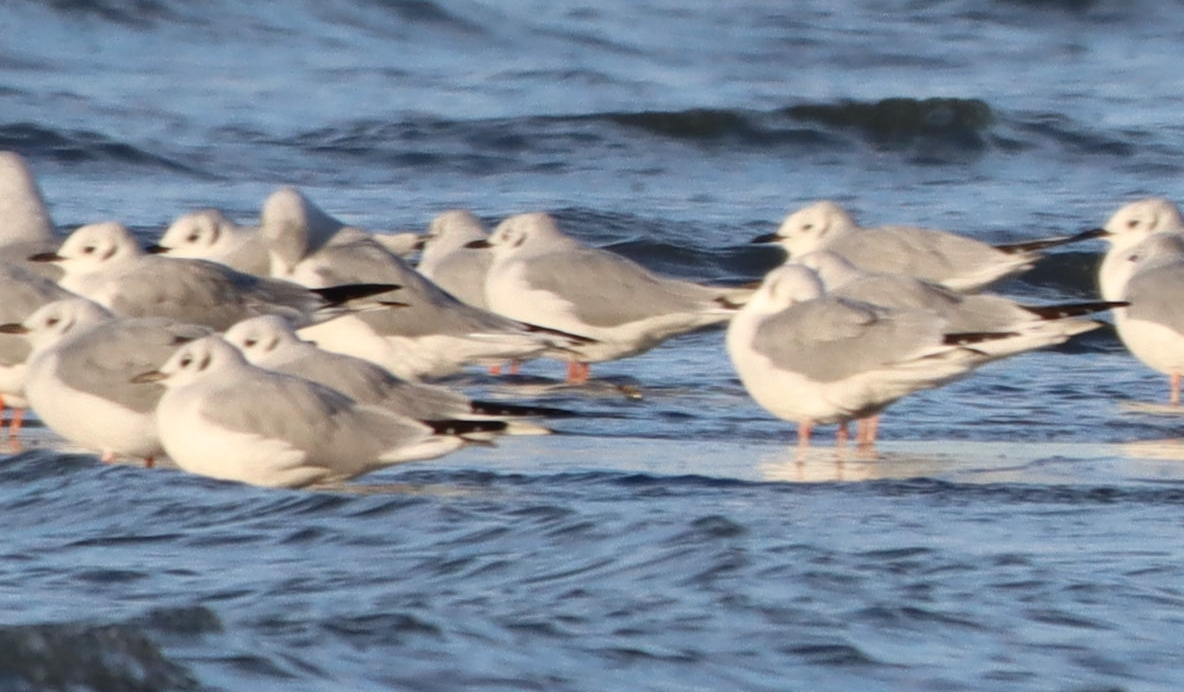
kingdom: Animalia
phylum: Chordata
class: Aves
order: Charadriiformes
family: Laridae
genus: Chroicocephalus
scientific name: Chroicocephalus philadelphia
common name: Bonaparte's gull
